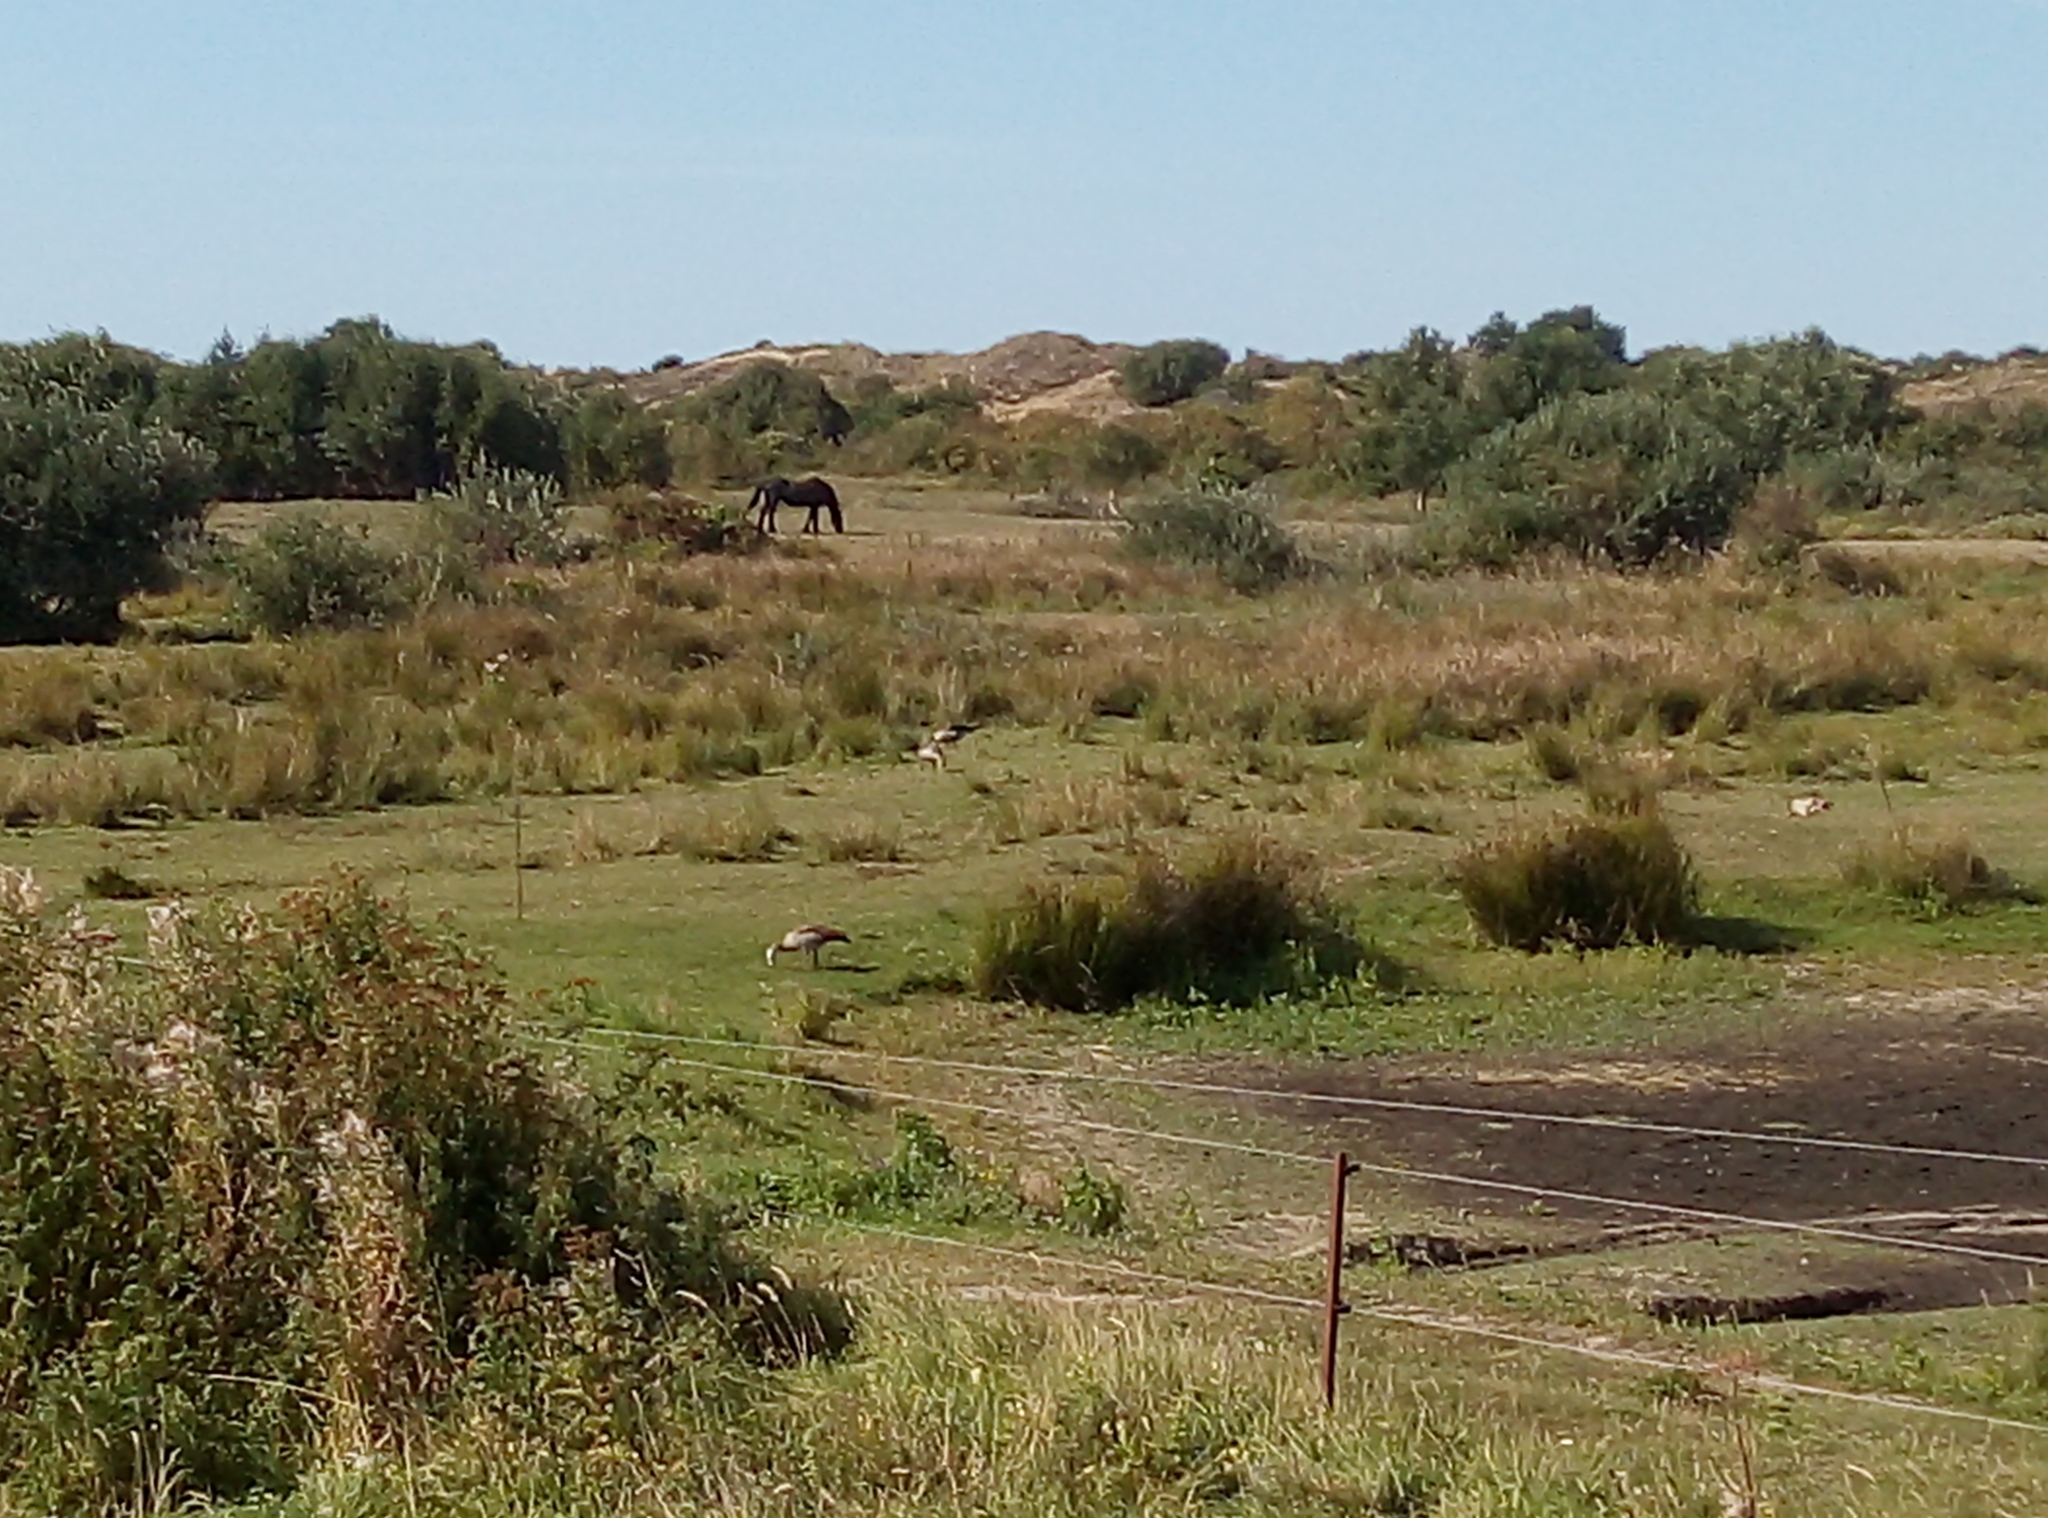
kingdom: Animalia
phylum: Chordata
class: Aves
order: Anseriformes
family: Anatidae
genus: Alopochen
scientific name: Alopochen aegyptiaca
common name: Egyptian goose
